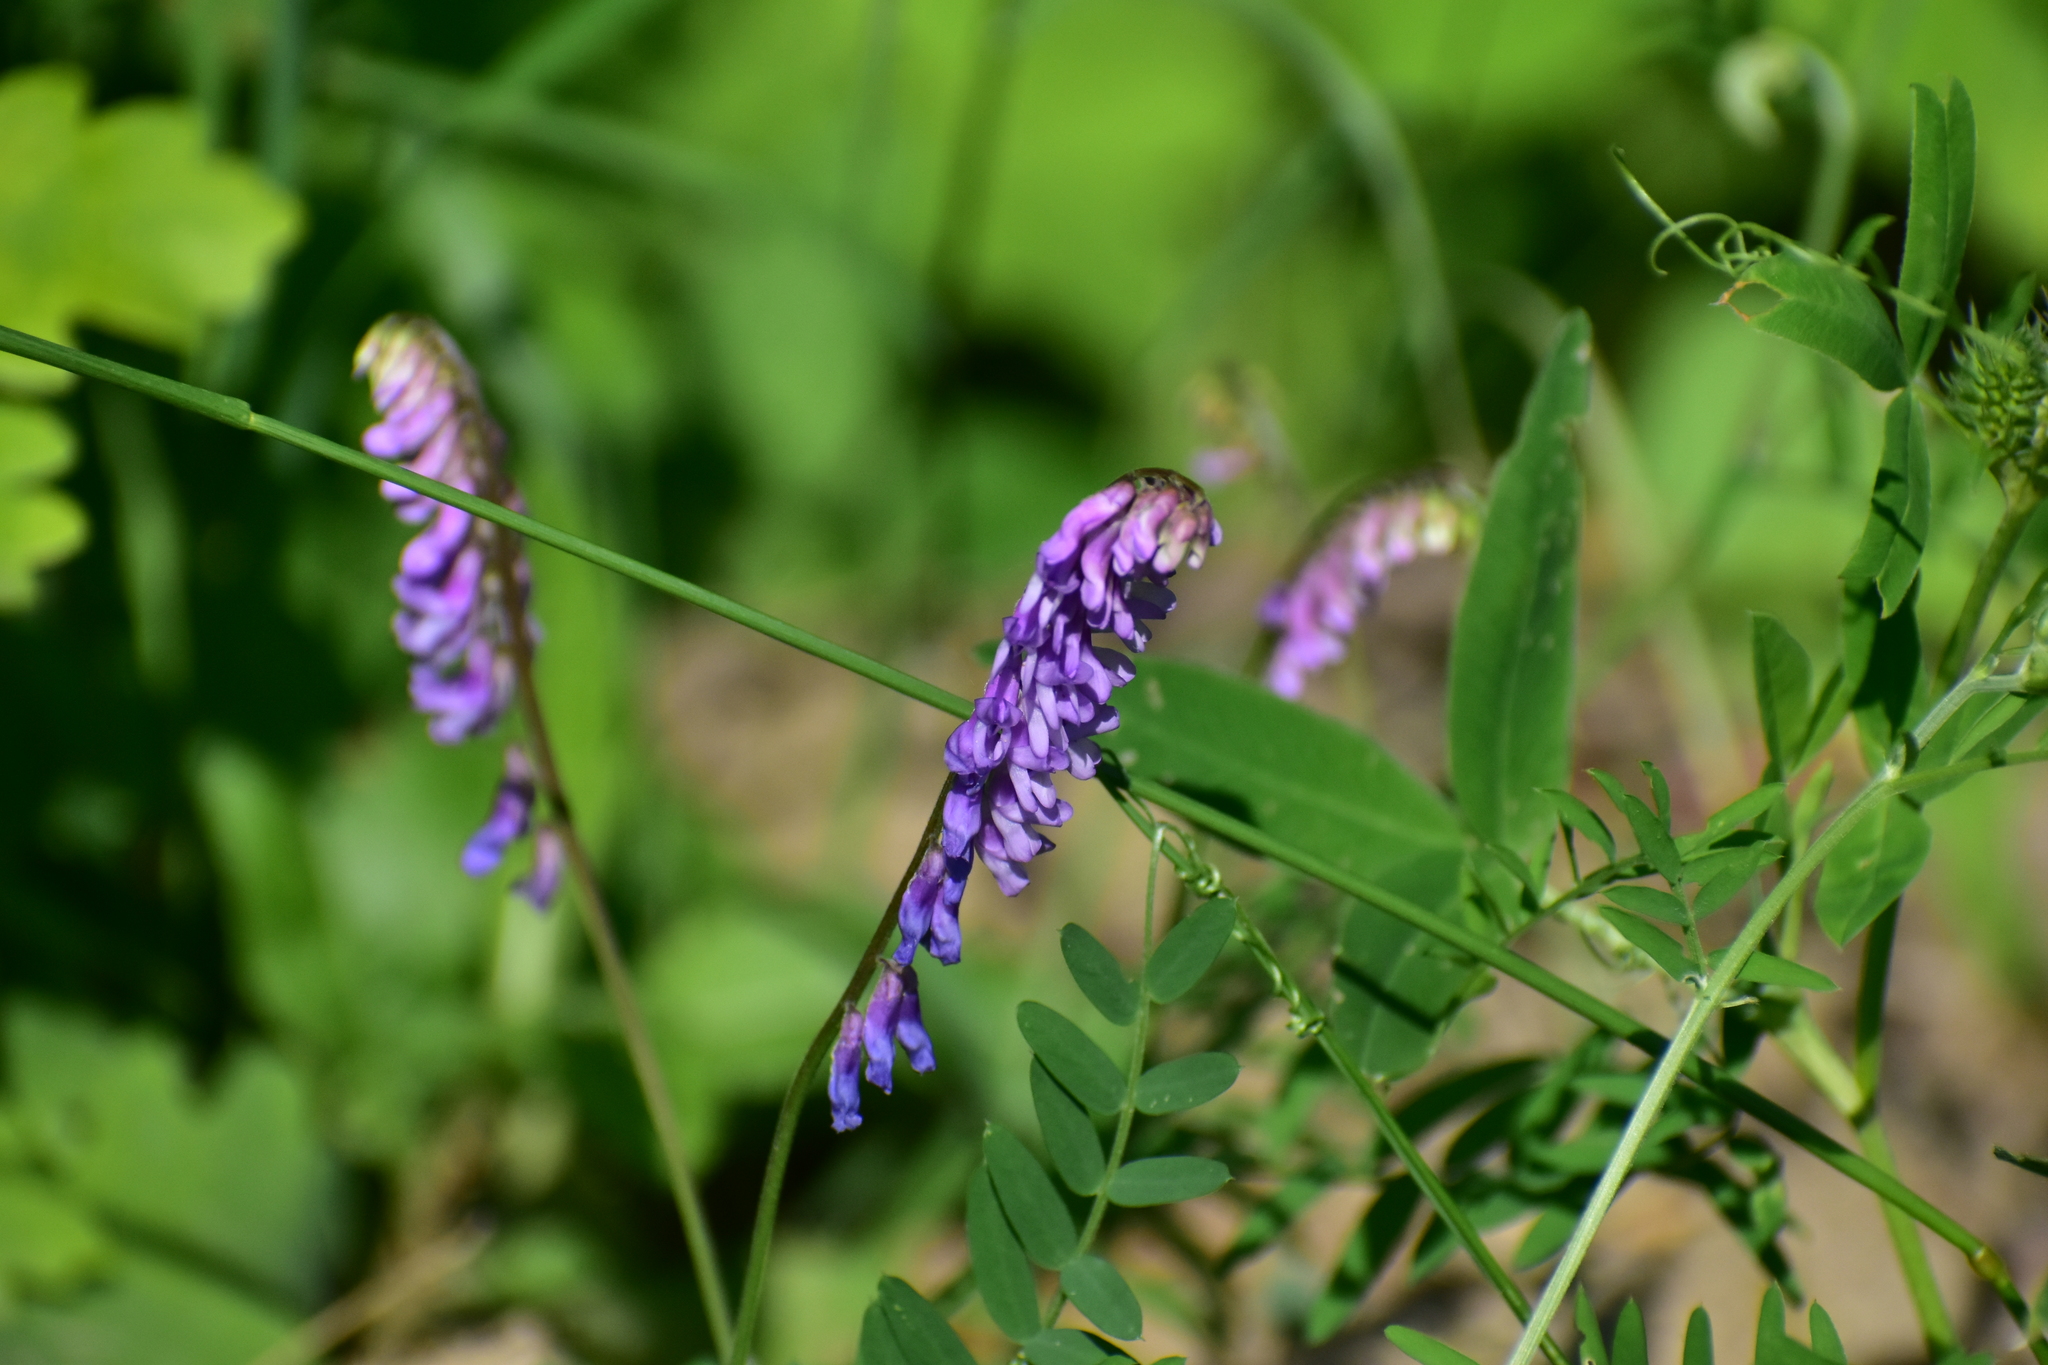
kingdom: Plantae
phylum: Tracheophyta
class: Magnoliopsida
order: Fabales
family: Fabaceae
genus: Vicia
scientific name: Vicia cracca
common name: Bird vetch
